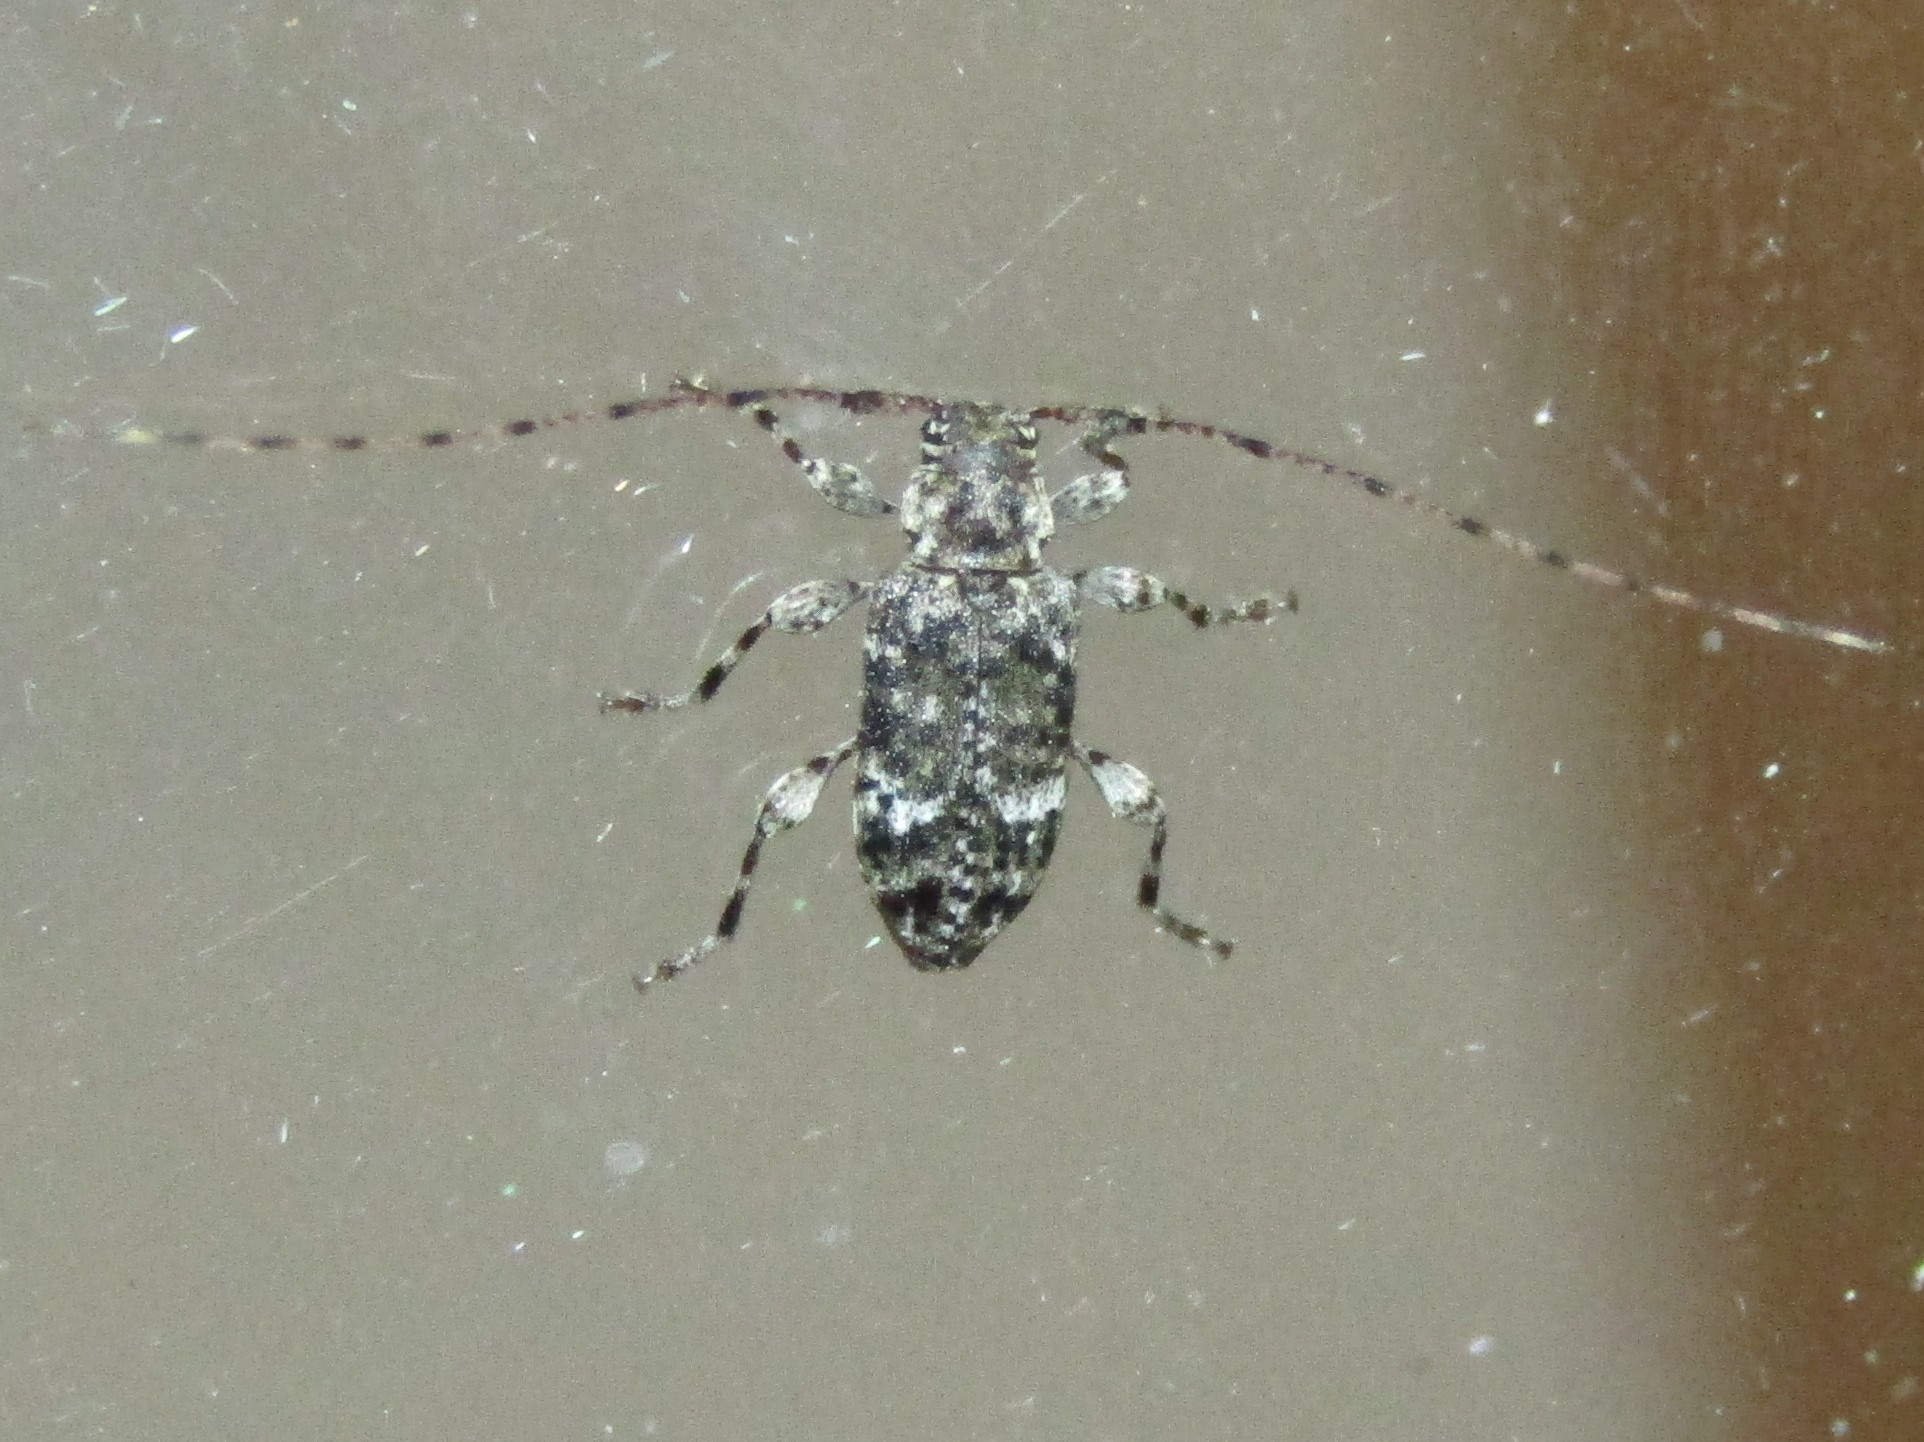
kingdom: Animalia
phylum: Arthropoda
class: Insecta
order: Coleoptera
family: Cerambycidae
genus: Sternidius
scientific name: Sternidius punctatus
